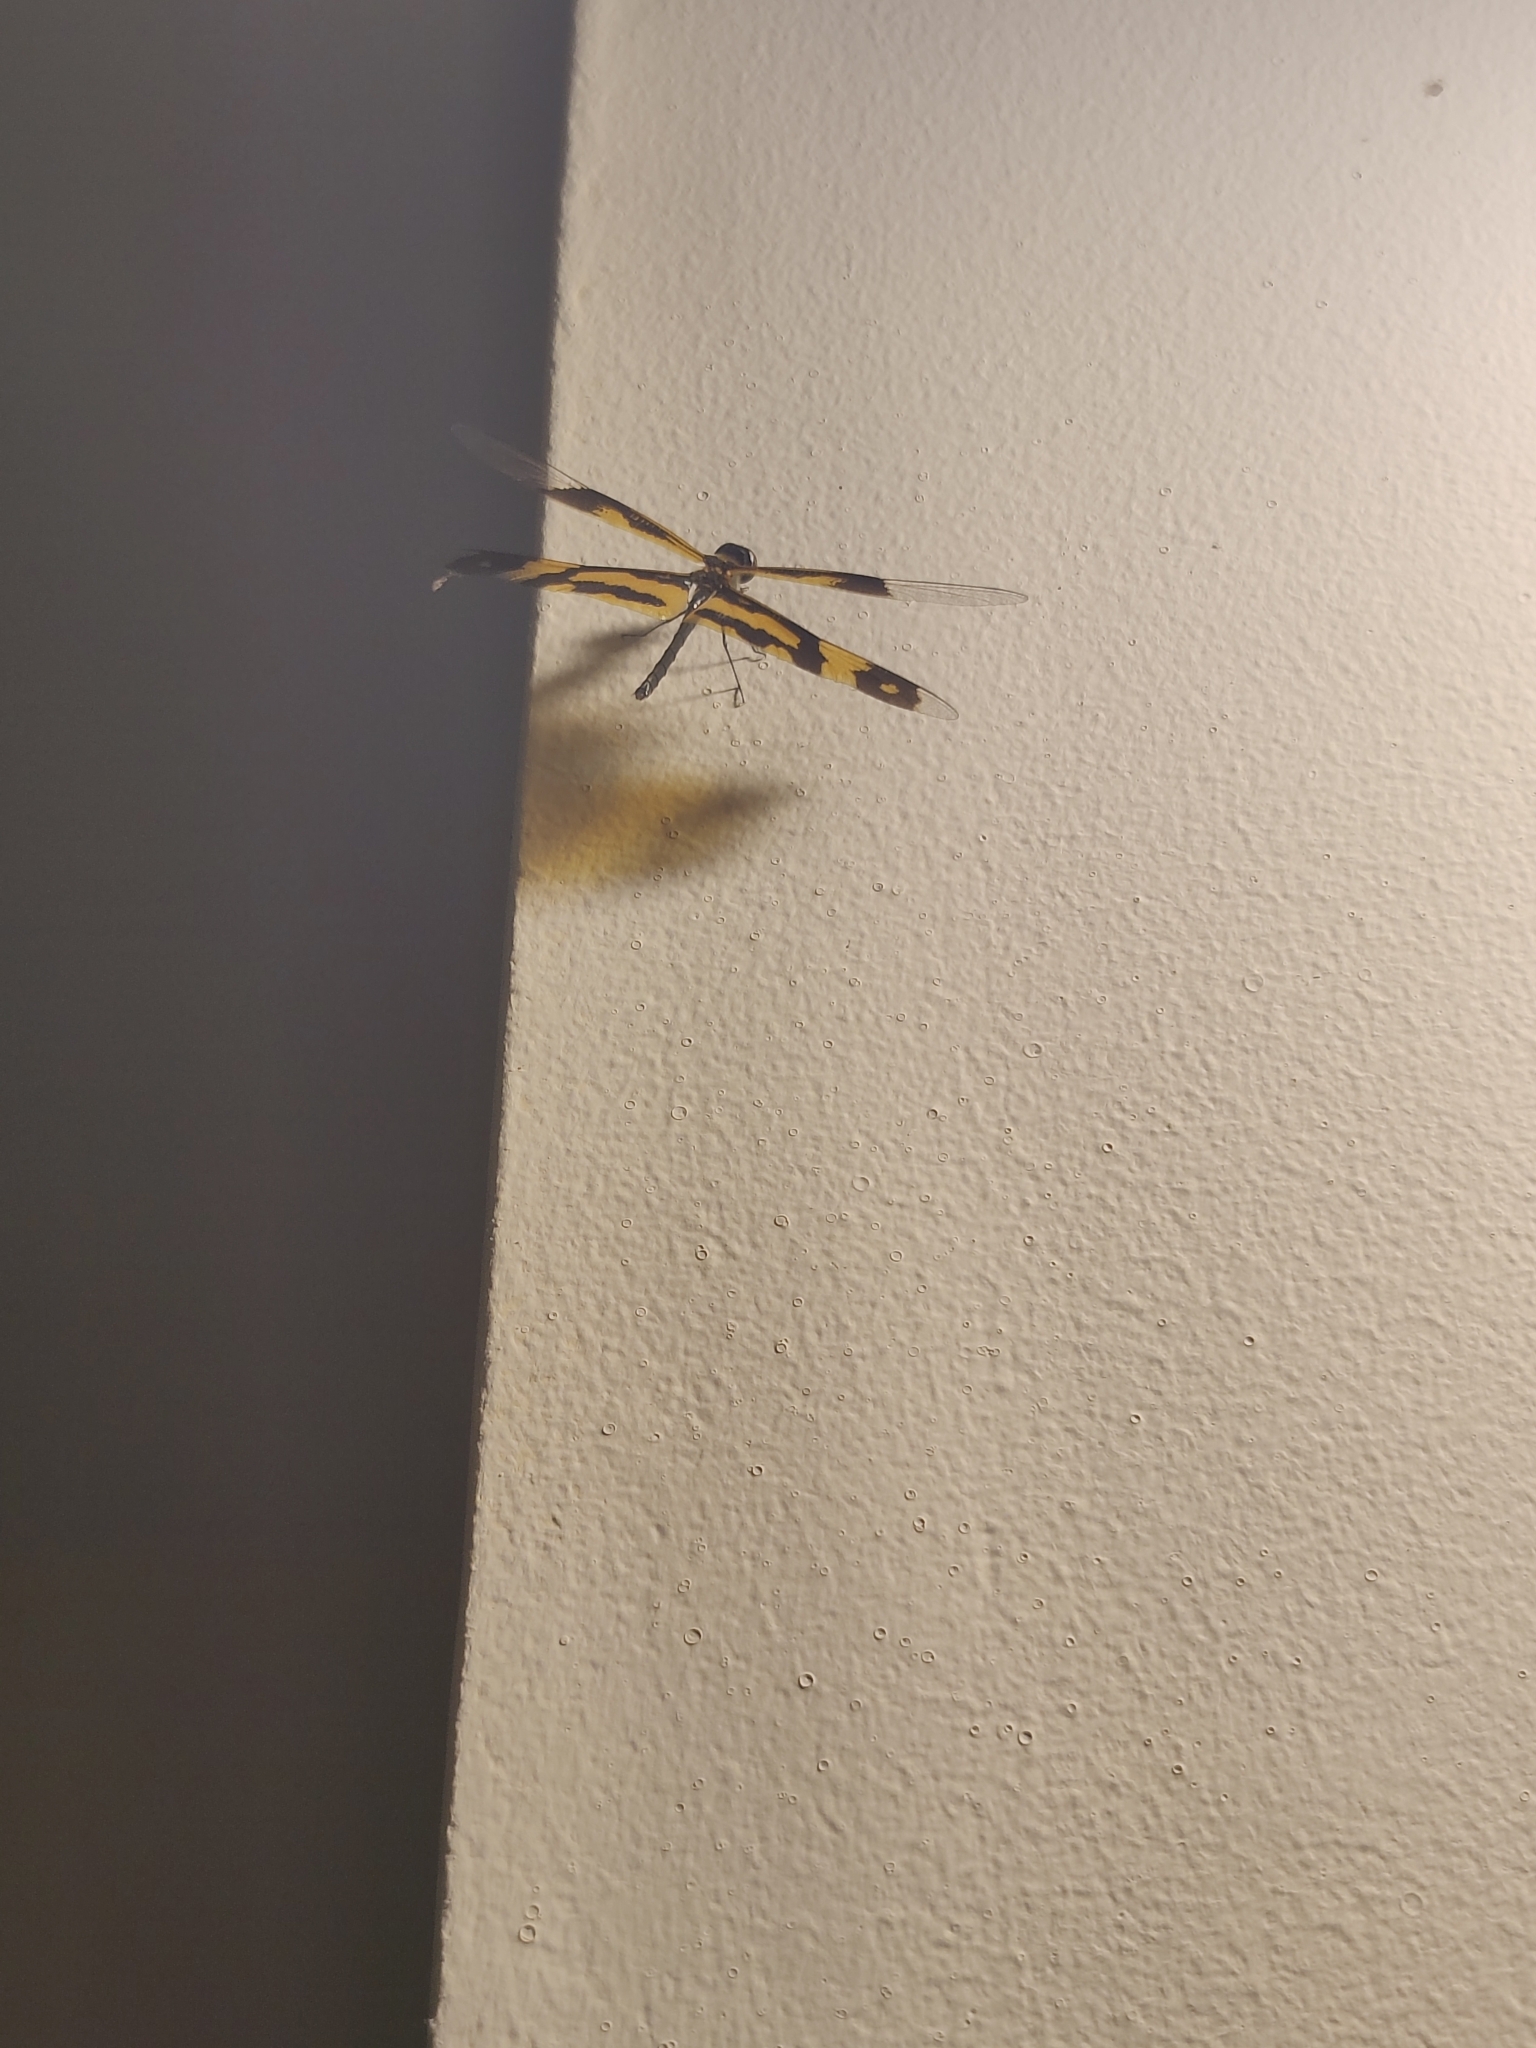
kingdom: Animalia
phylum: Arthropoda
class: Insecta
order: Odonata
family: Libellulidae
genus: Rhyothemis
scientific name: Rhyothemis variegata
